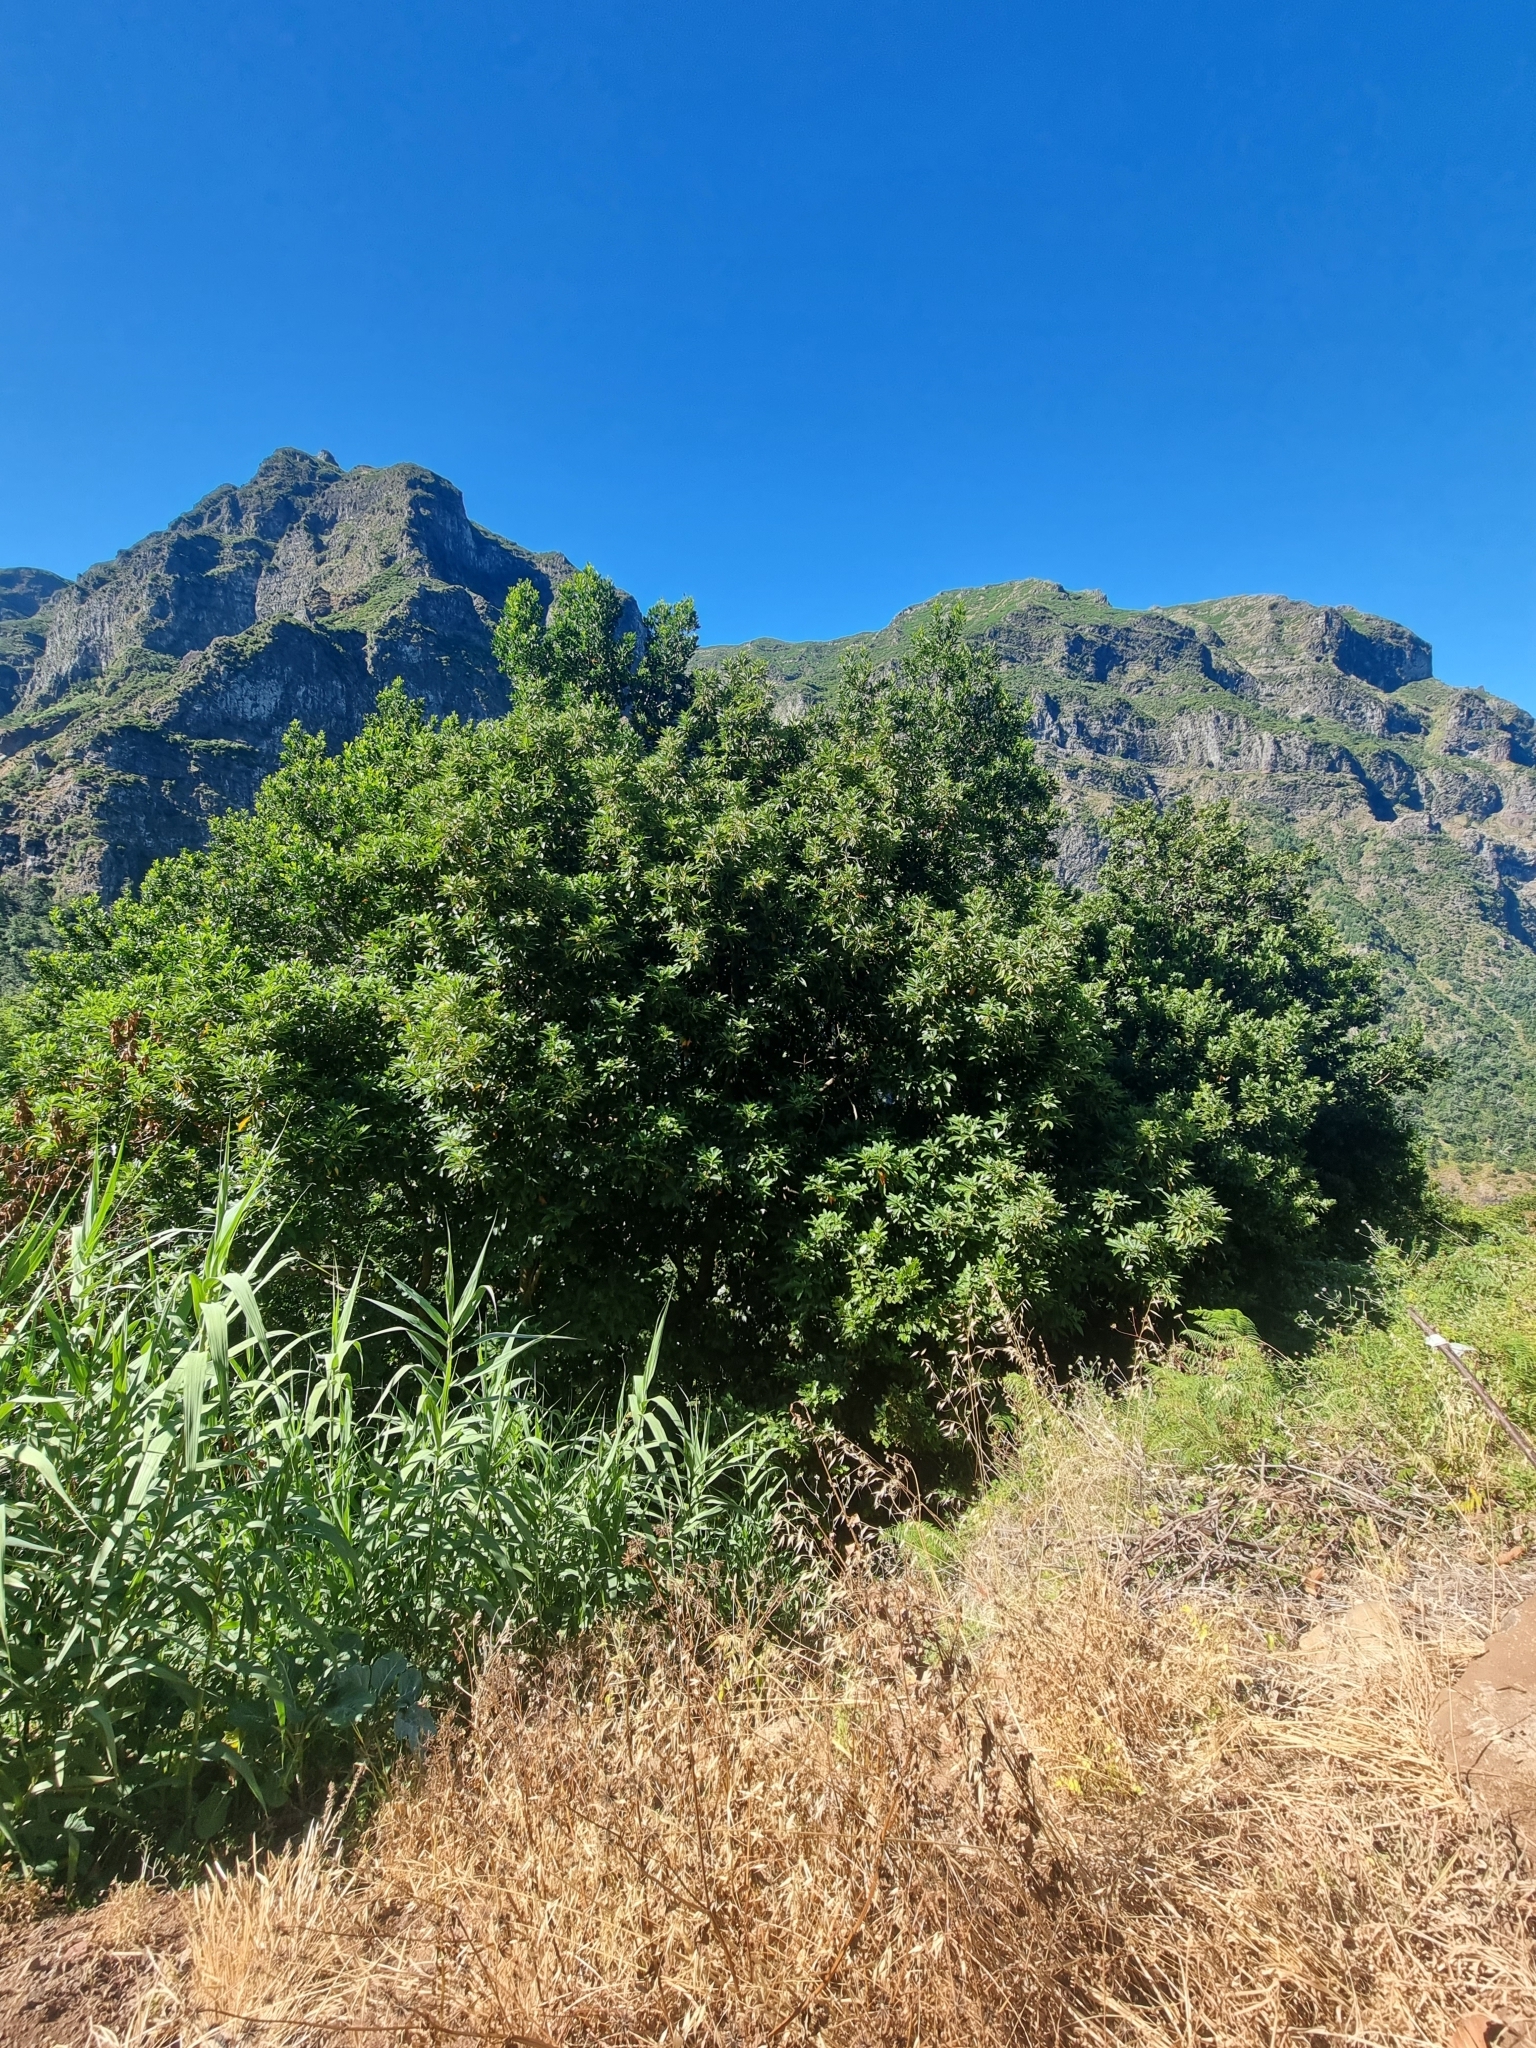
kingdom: Plantae
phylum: Tracheophyta
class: Magnoliopsida
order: Laurales
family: Lauraceae
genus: Persea
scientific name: Persea indica
